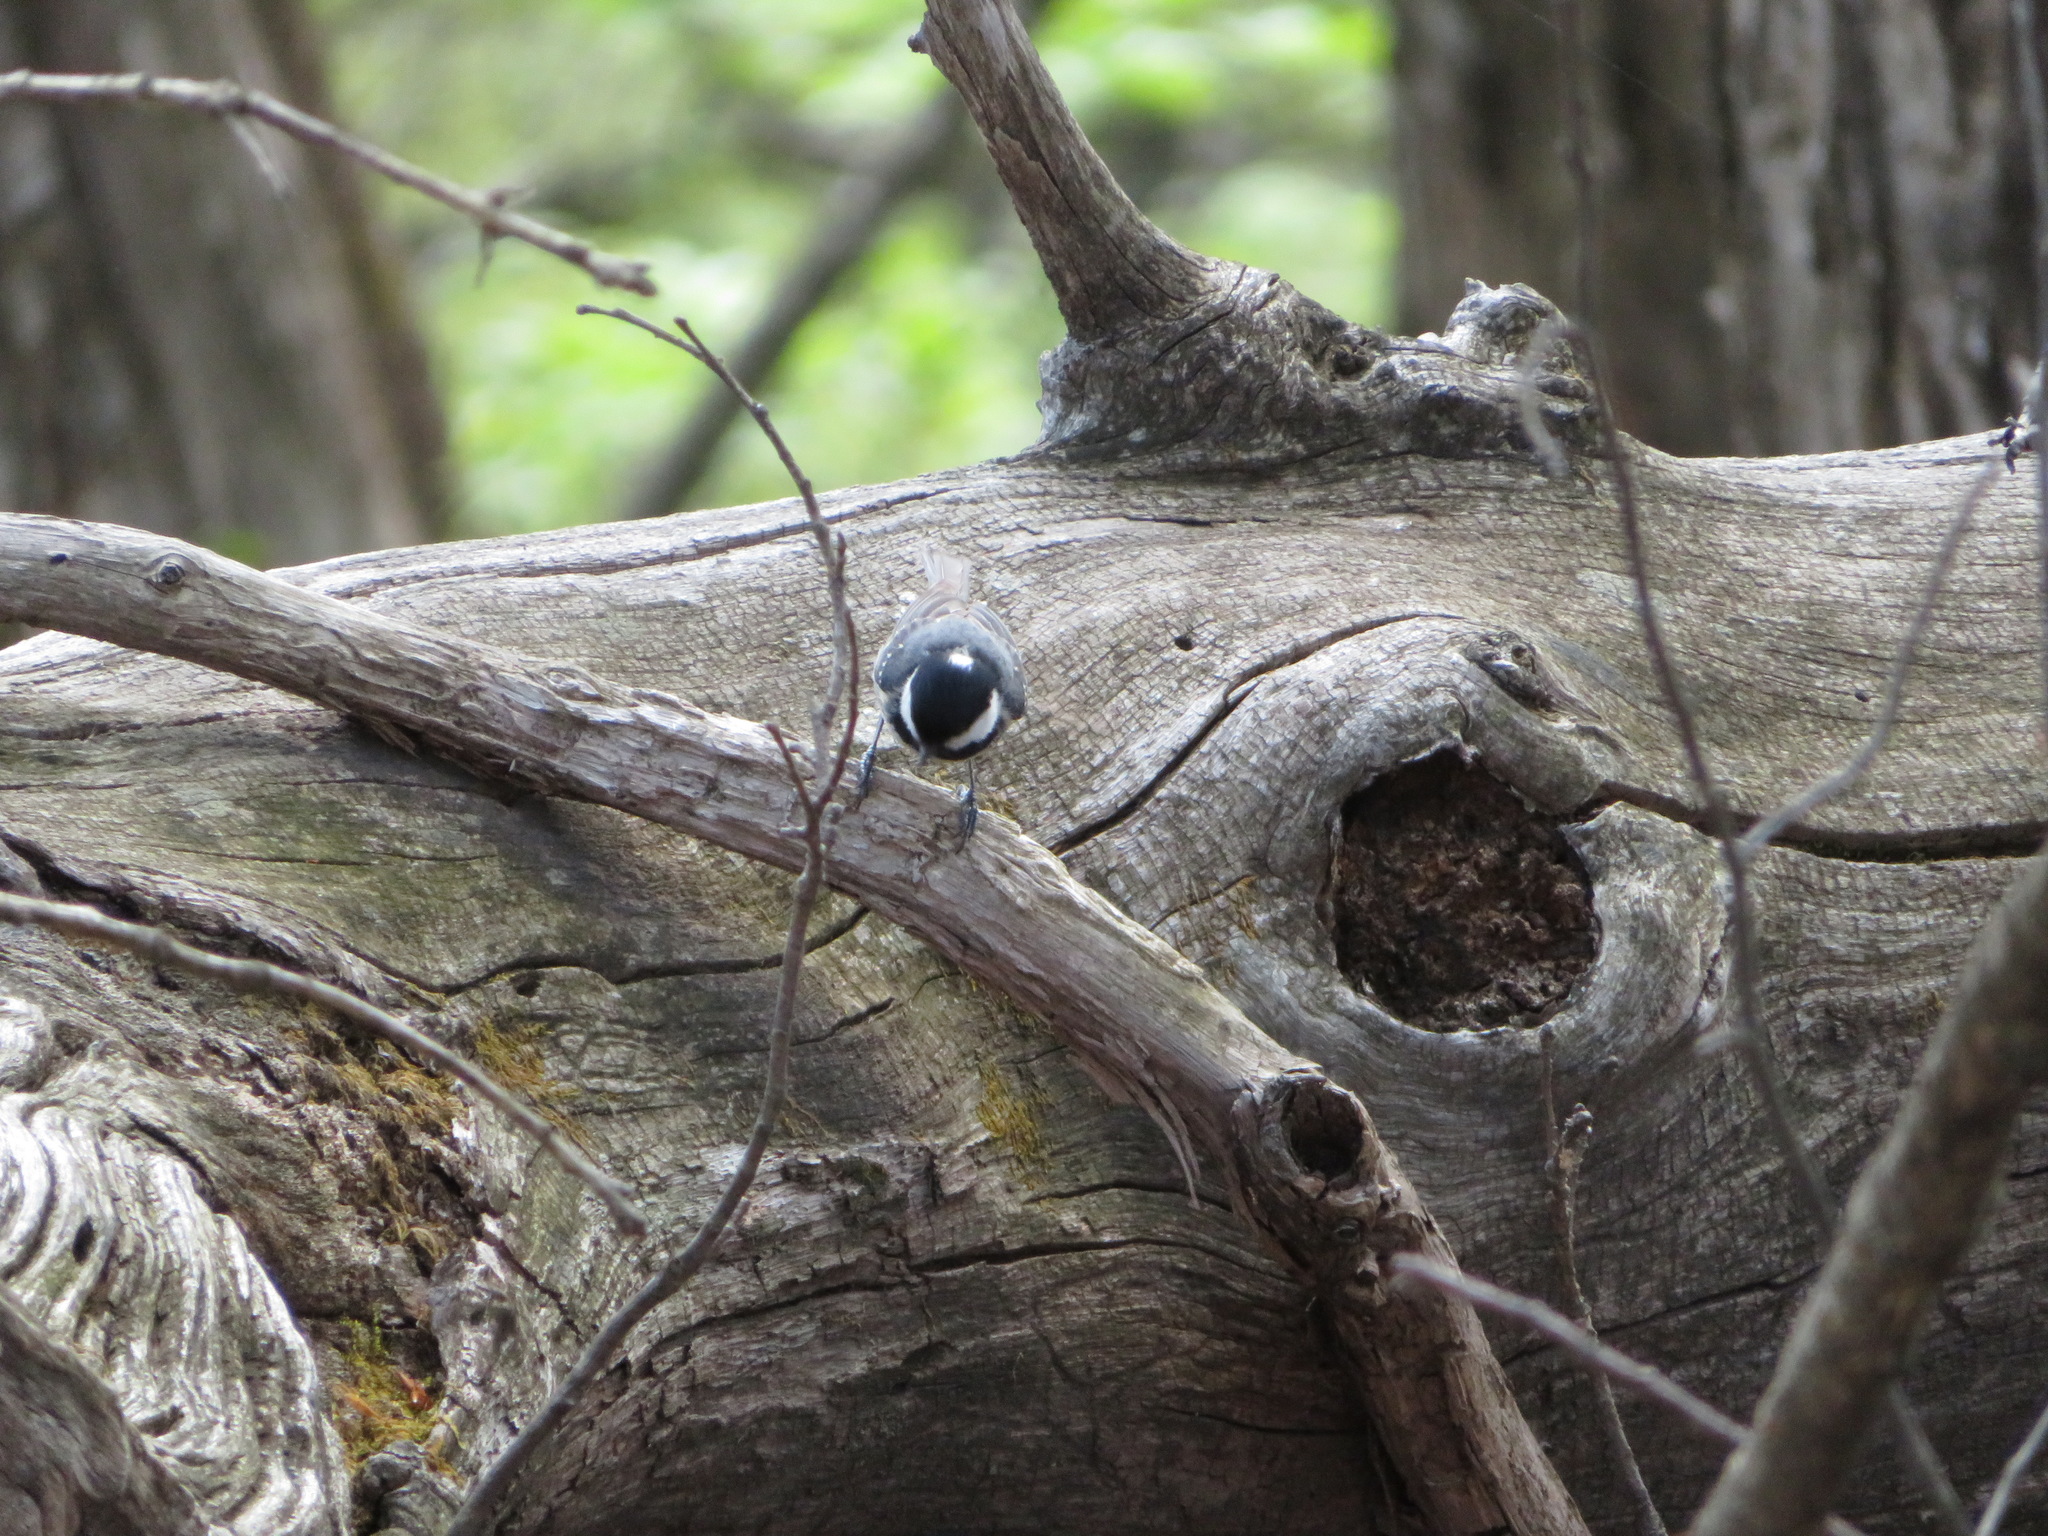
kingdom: Animalia
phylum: Chordata
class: Aves
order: Passeriformes
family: Paridae
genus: Periparus
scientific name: Periparus ater
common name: Coal tit
